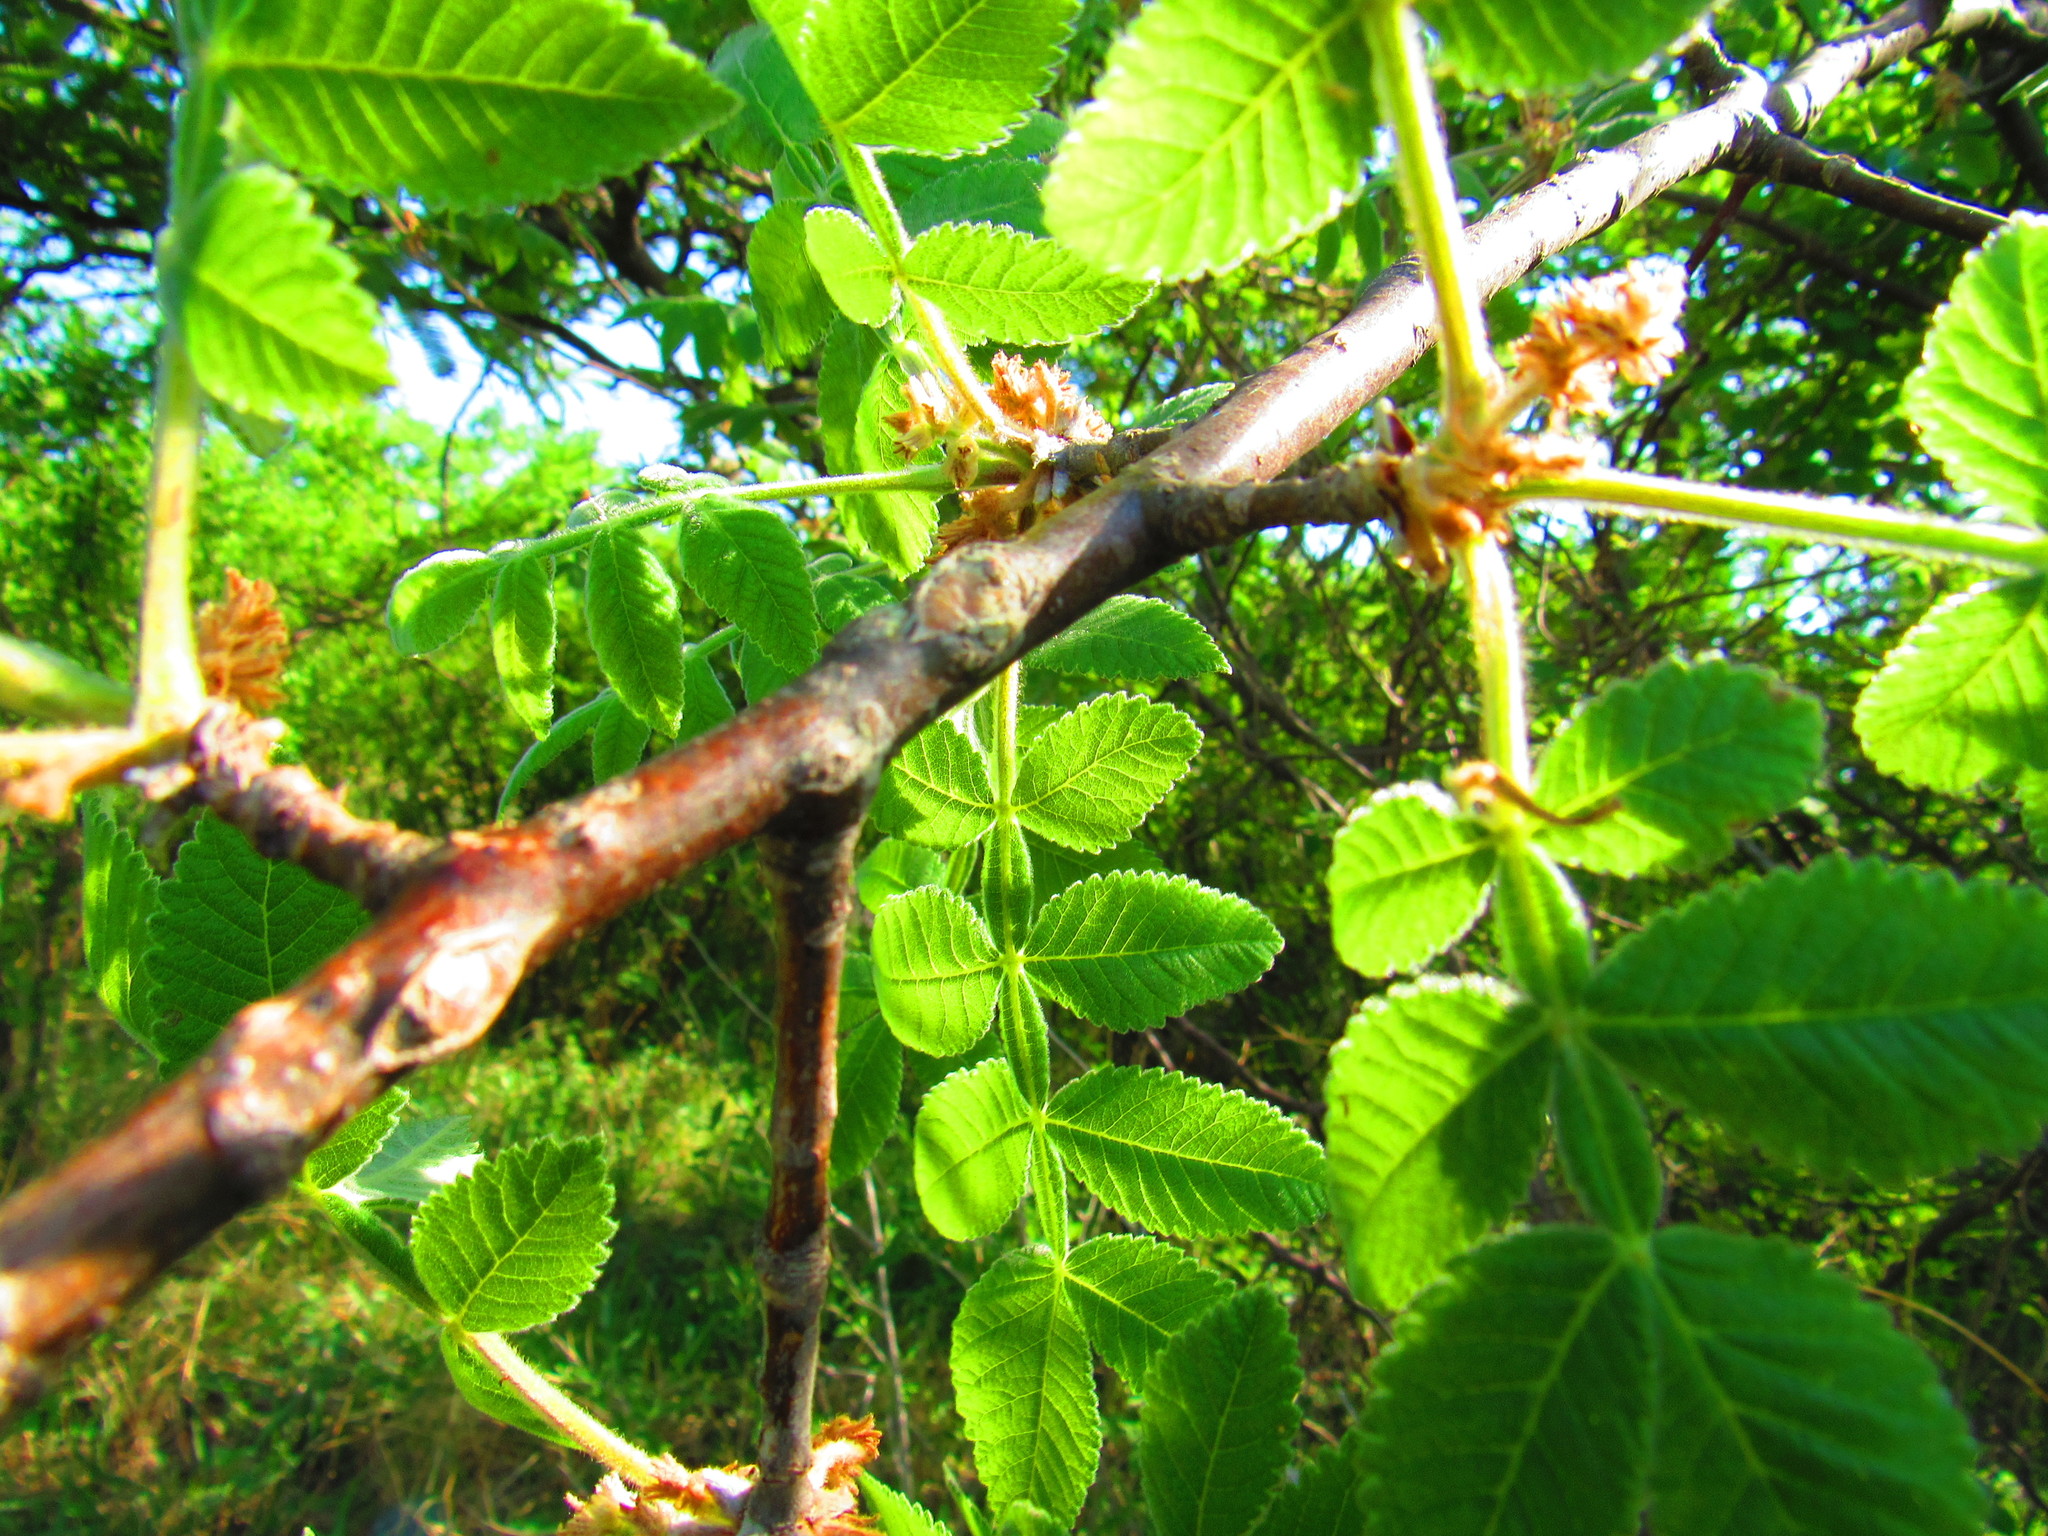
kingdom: Plantae
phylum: Tracheophyta
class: Magnoliopsida
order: Sapindales
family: Burseraceae
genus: Bursera
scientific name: Bursera palmeri
